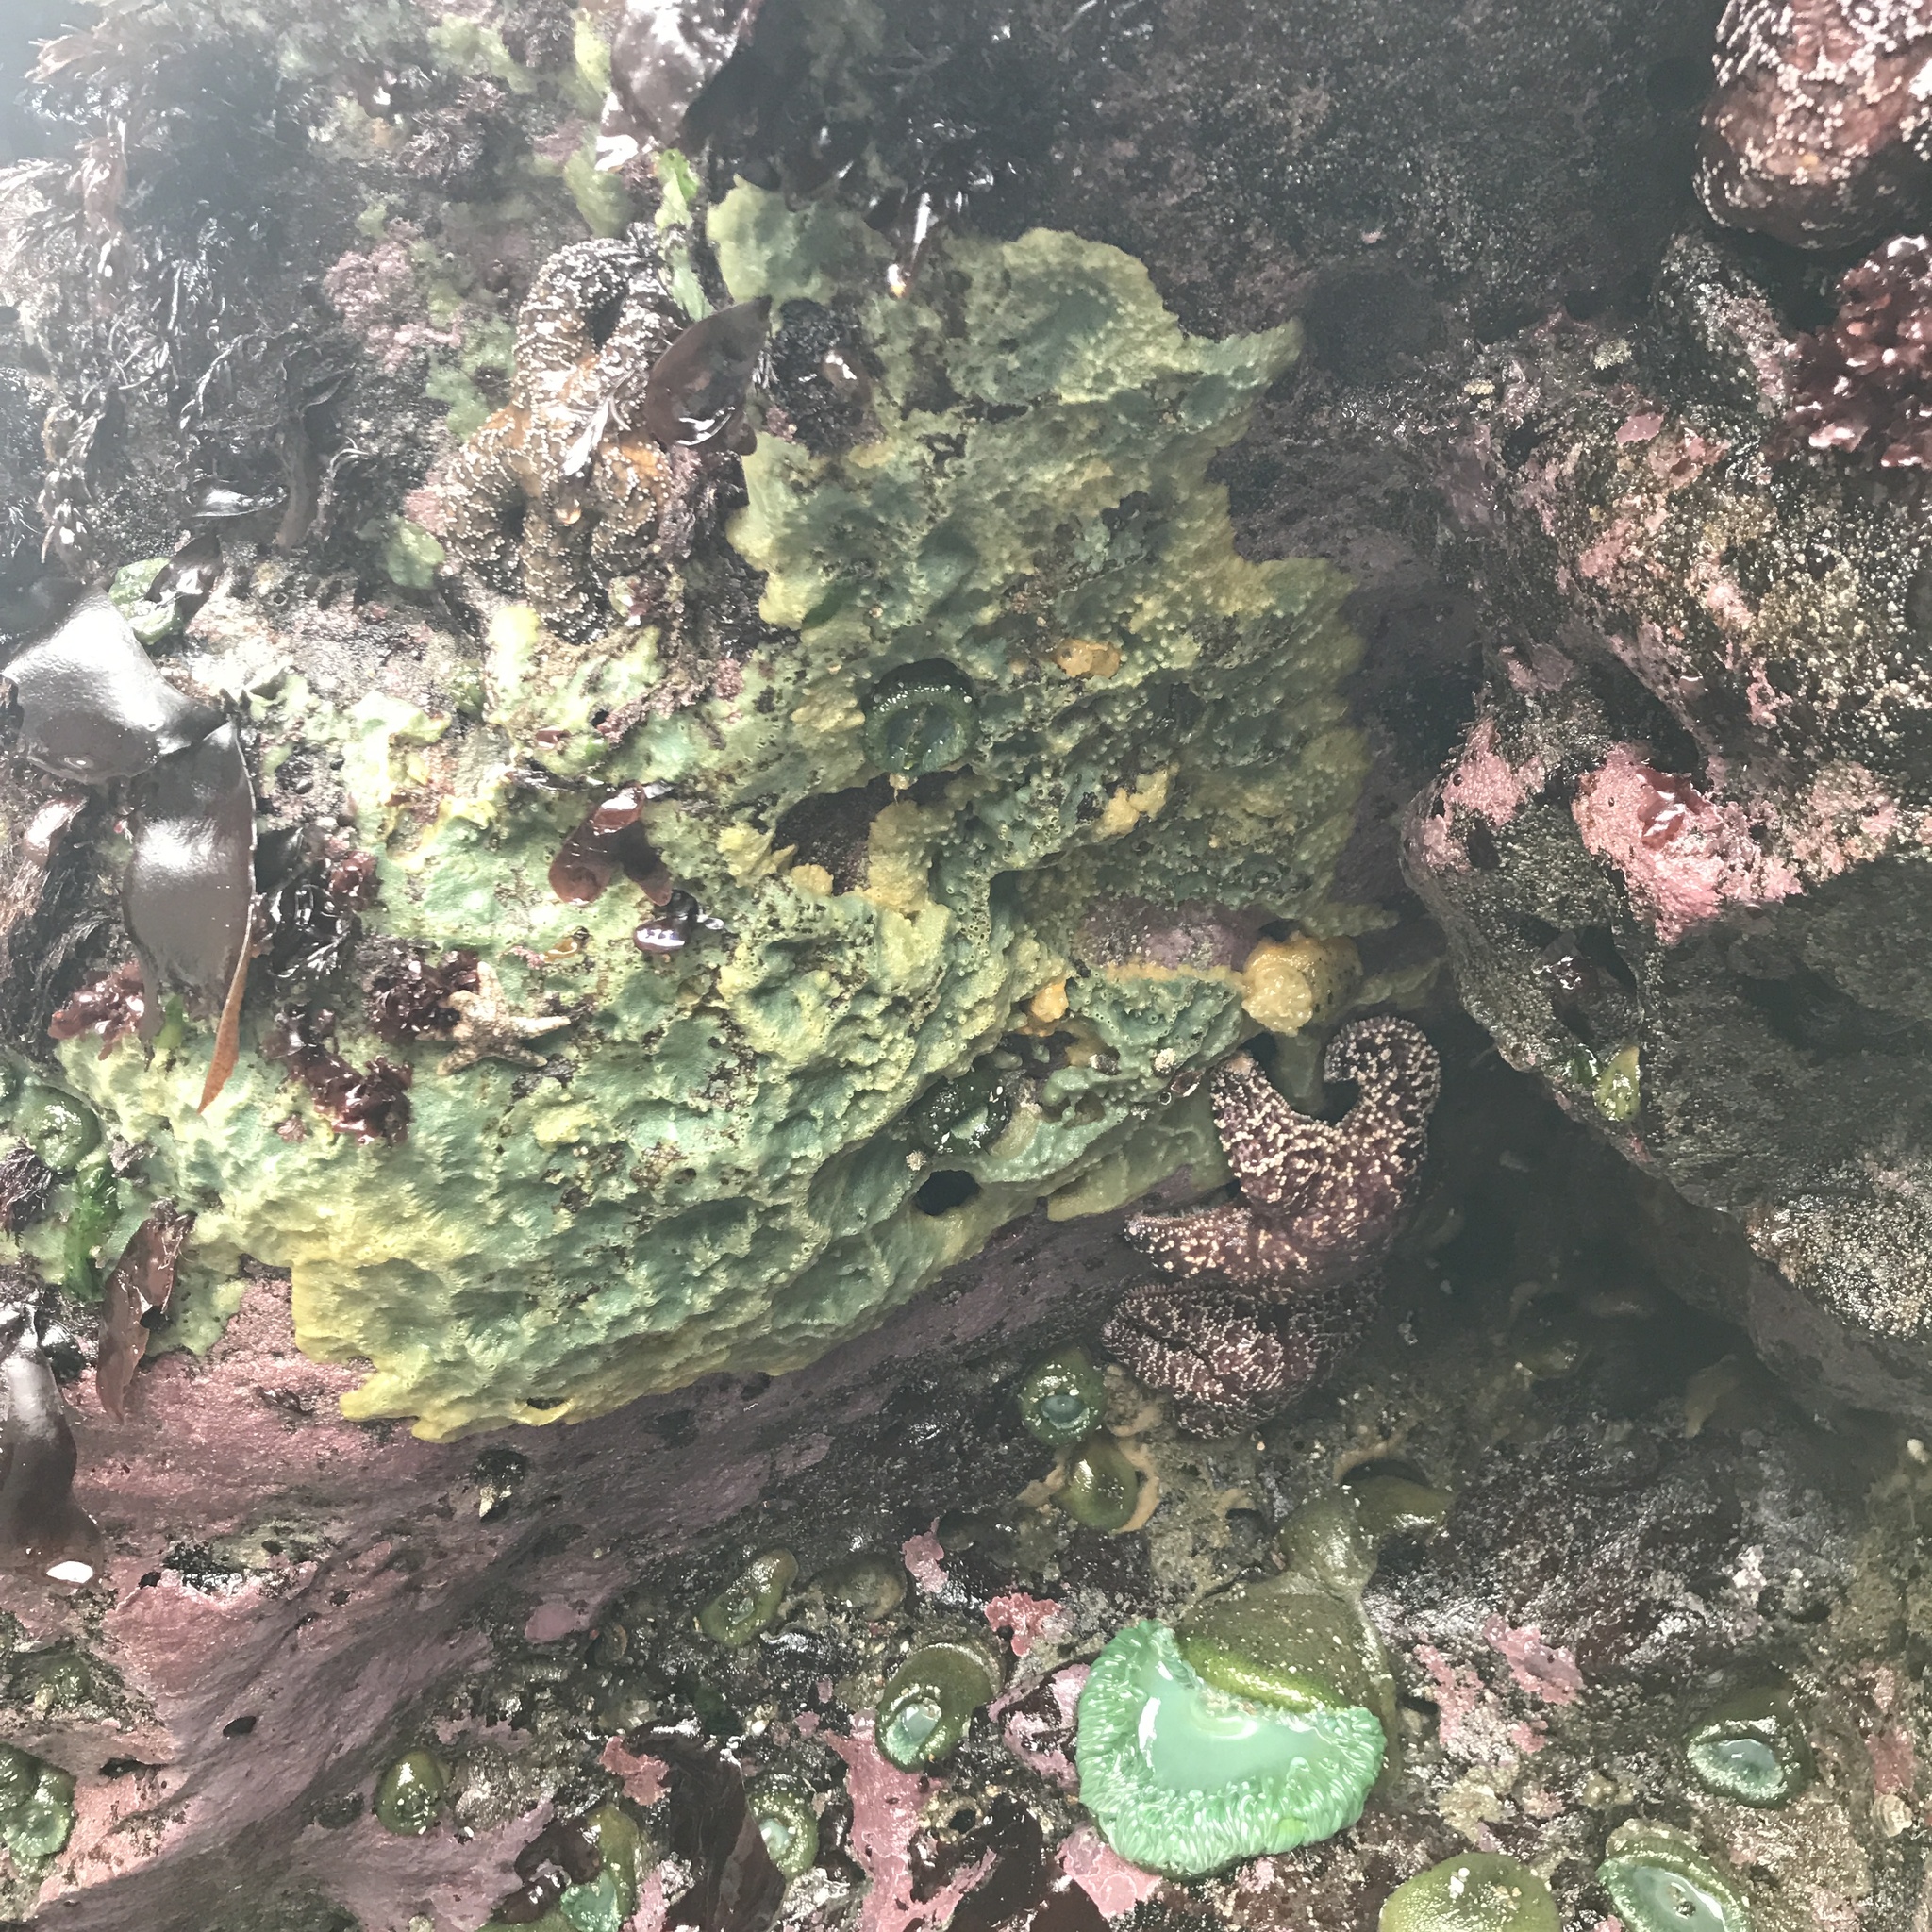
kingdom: Animalia
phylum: Porifera
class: Demospongiae
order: Suberitida
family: Halichondriidae
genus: Halichondria
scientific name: Halichondria panicea
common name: Breadcrumb sponge
